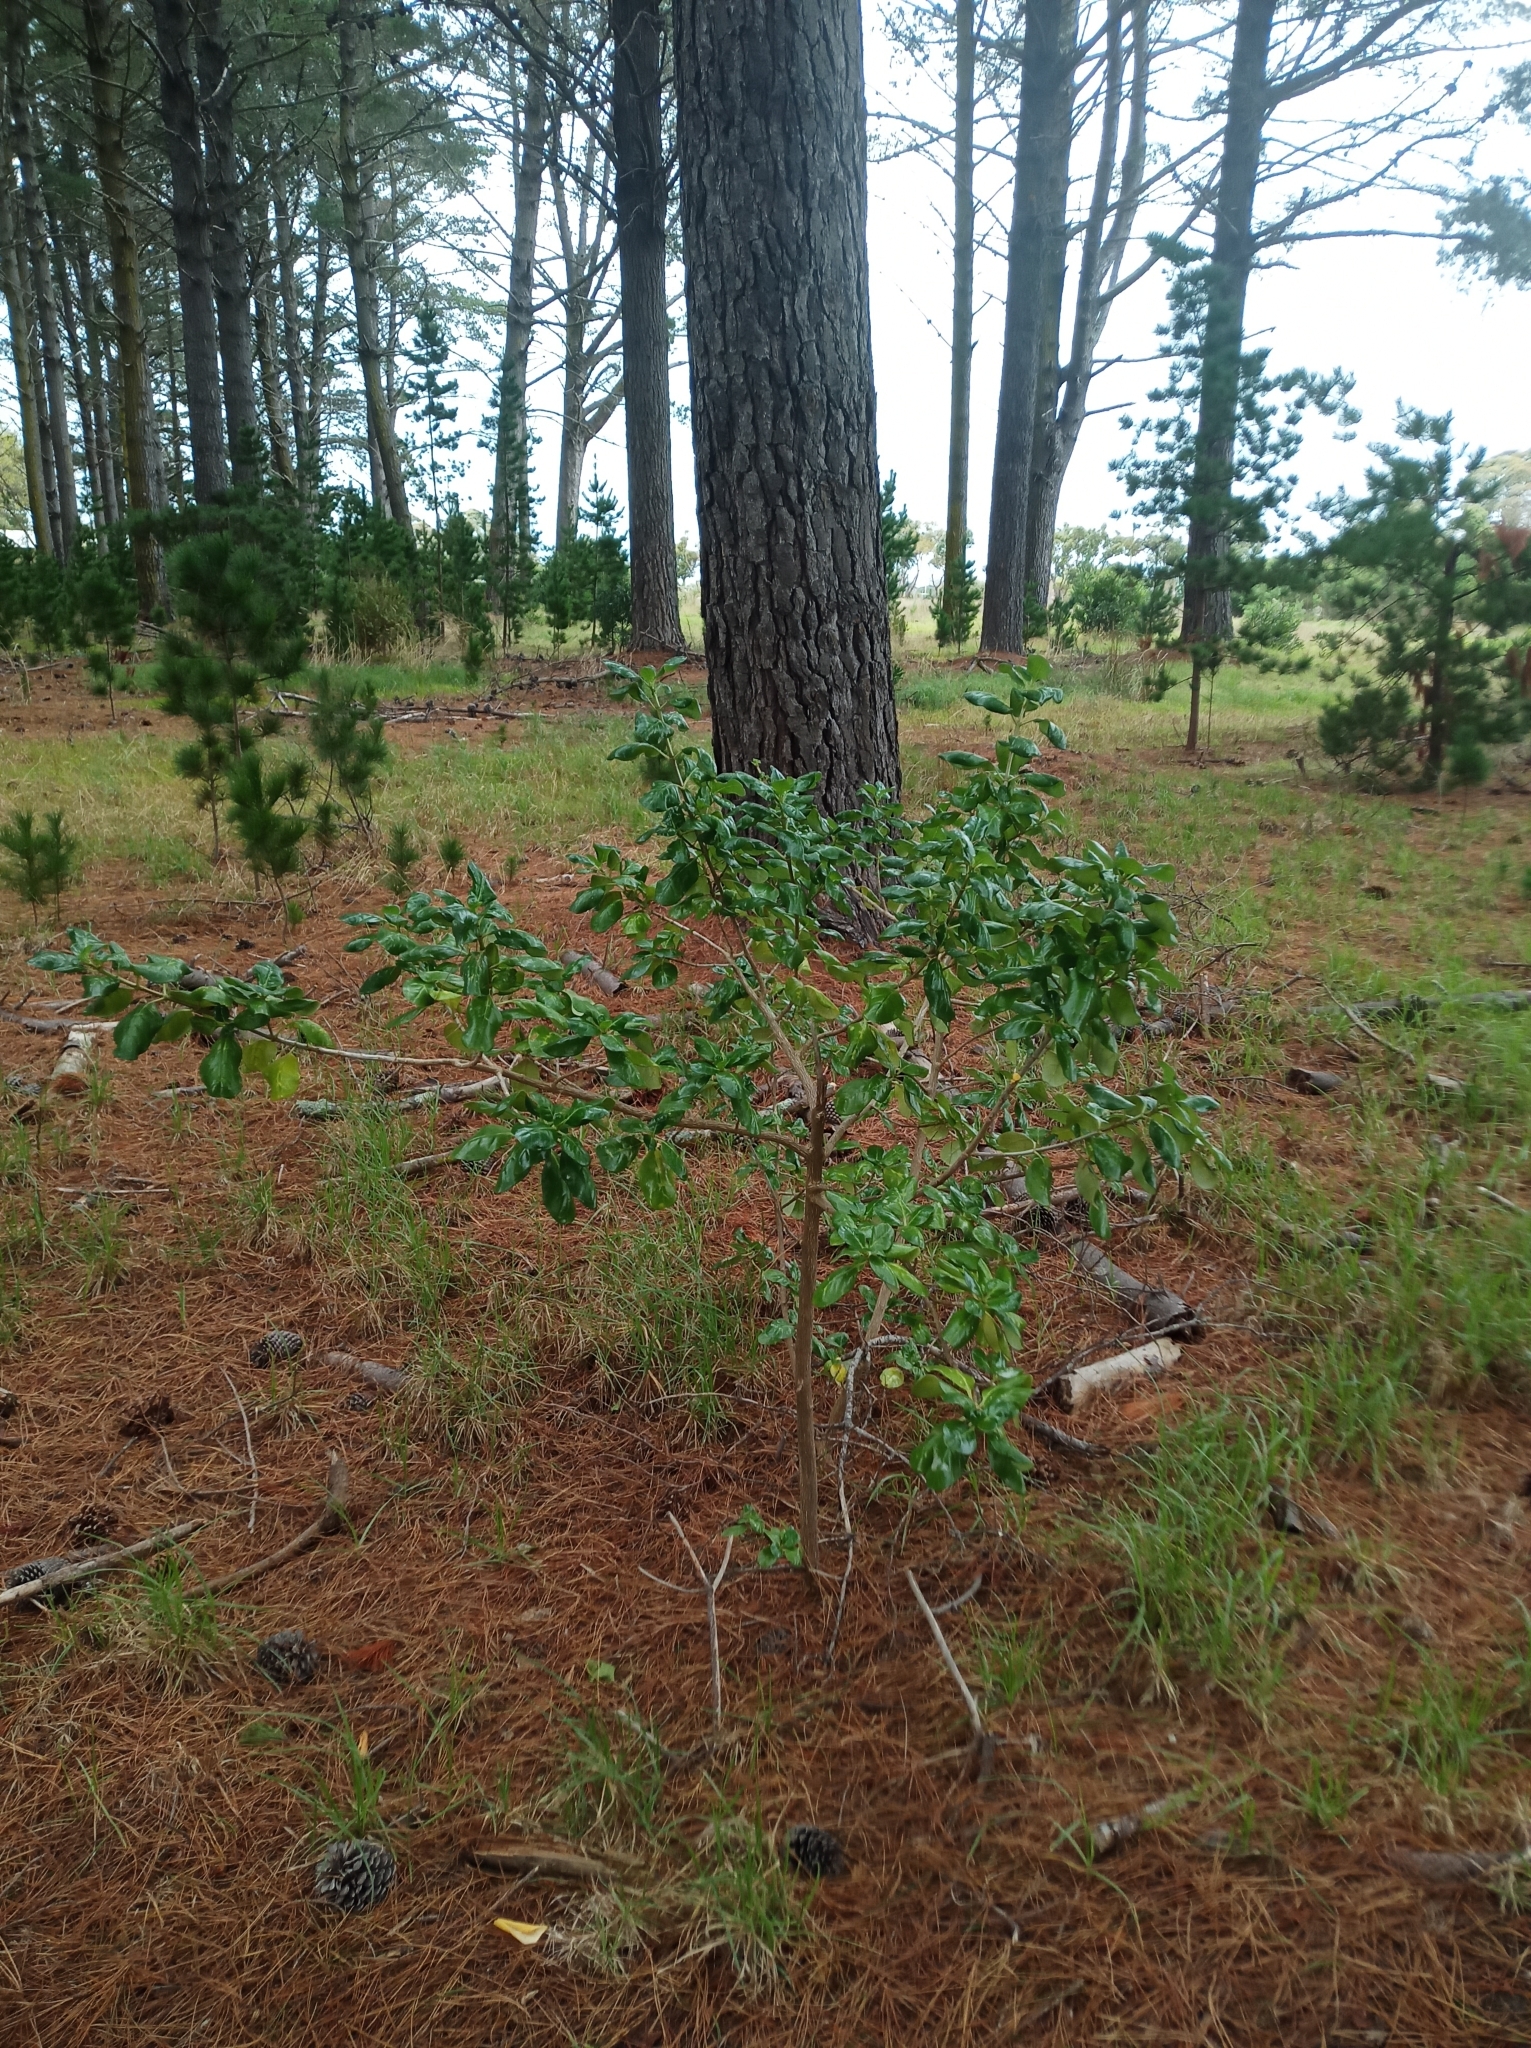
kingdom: Plantae
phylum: Tracheophyta
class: Magnoliopsida
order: Gentianales
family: Rubiaceae
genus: Coprosma
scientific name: Coprosma repens
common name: Tree bedstraw
